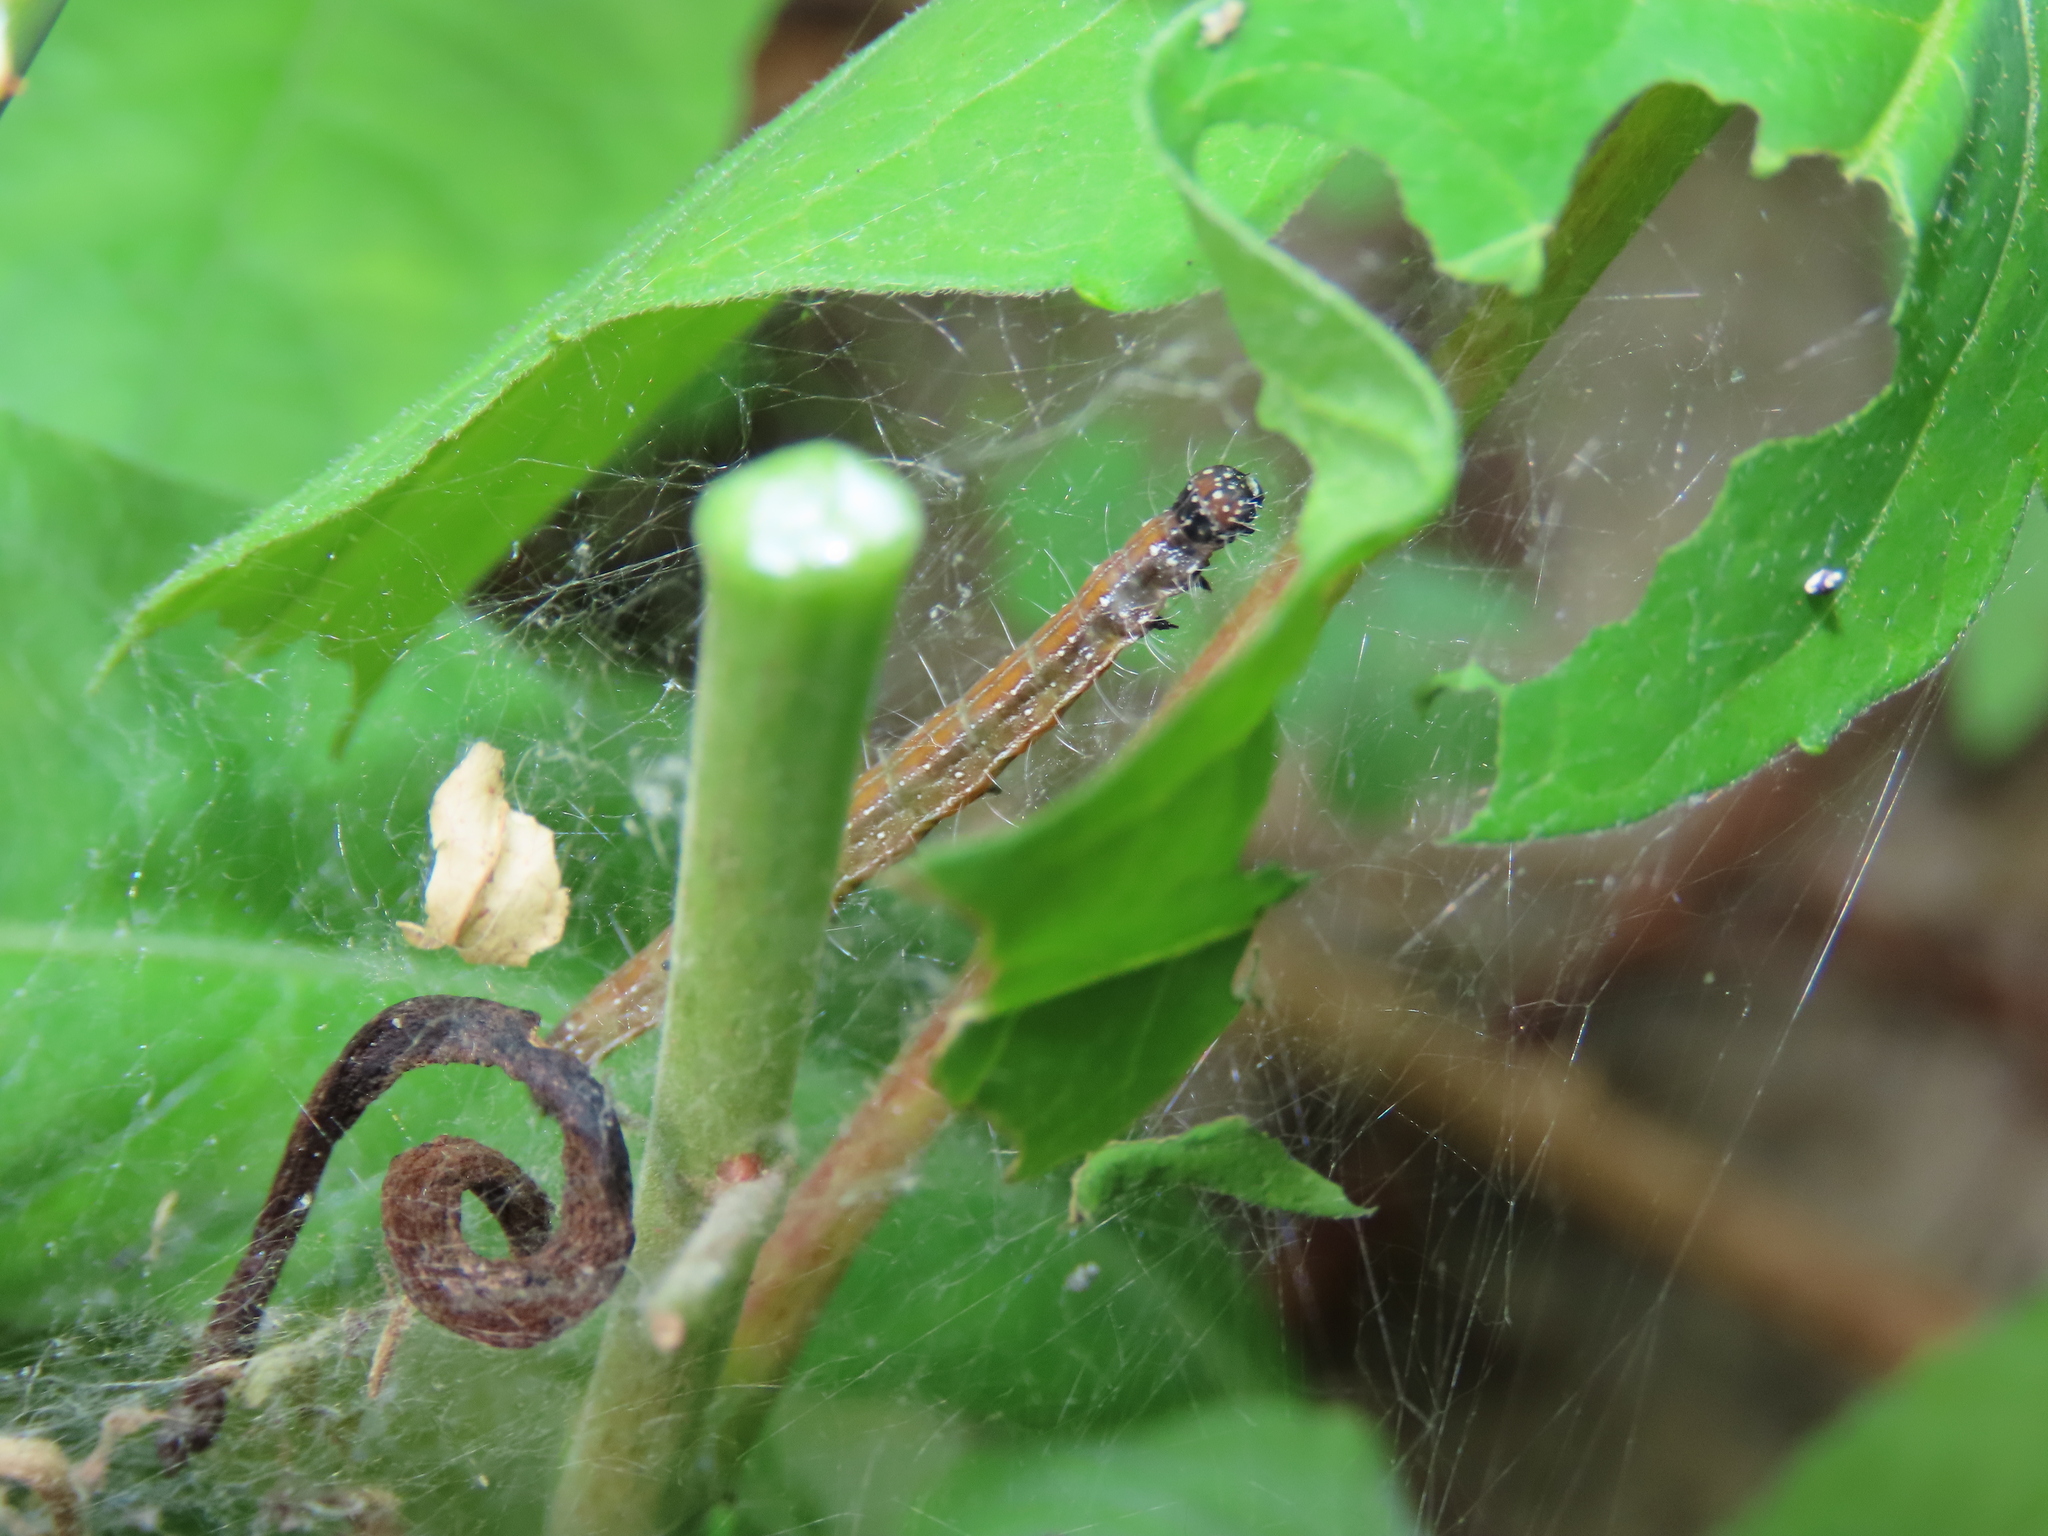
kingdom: Animalia
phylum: Arthropoda
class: Insecta
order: Lepidoptera
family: Attevidae
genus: Atteva
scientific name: Atteva punctella
